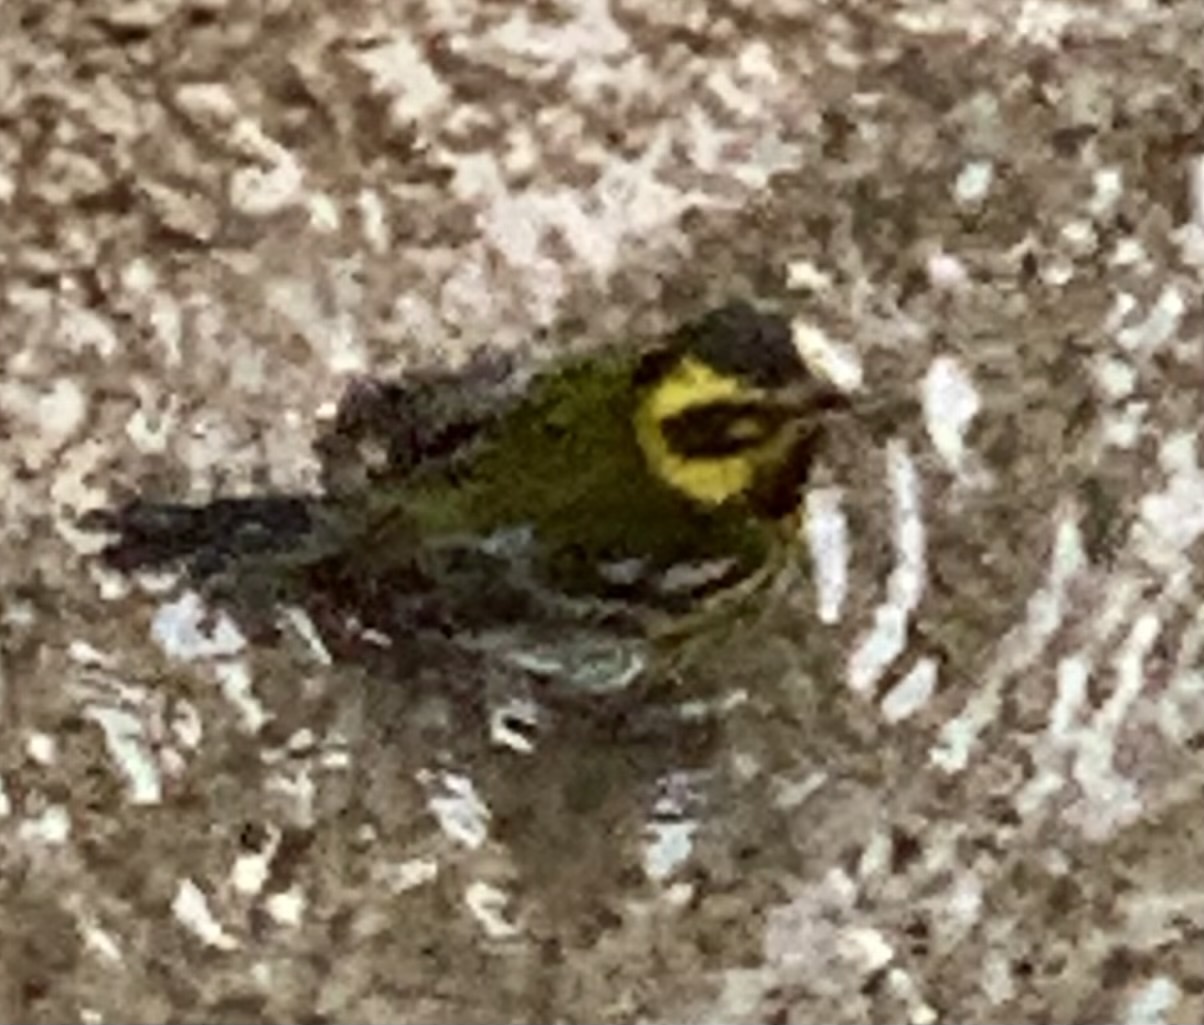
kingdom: Animalia
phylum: Chordata
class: Aves
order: Passeriformes
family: Parulidae
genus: Setophaga
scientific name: Setophaga townsendi
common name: Townsend's warbler
